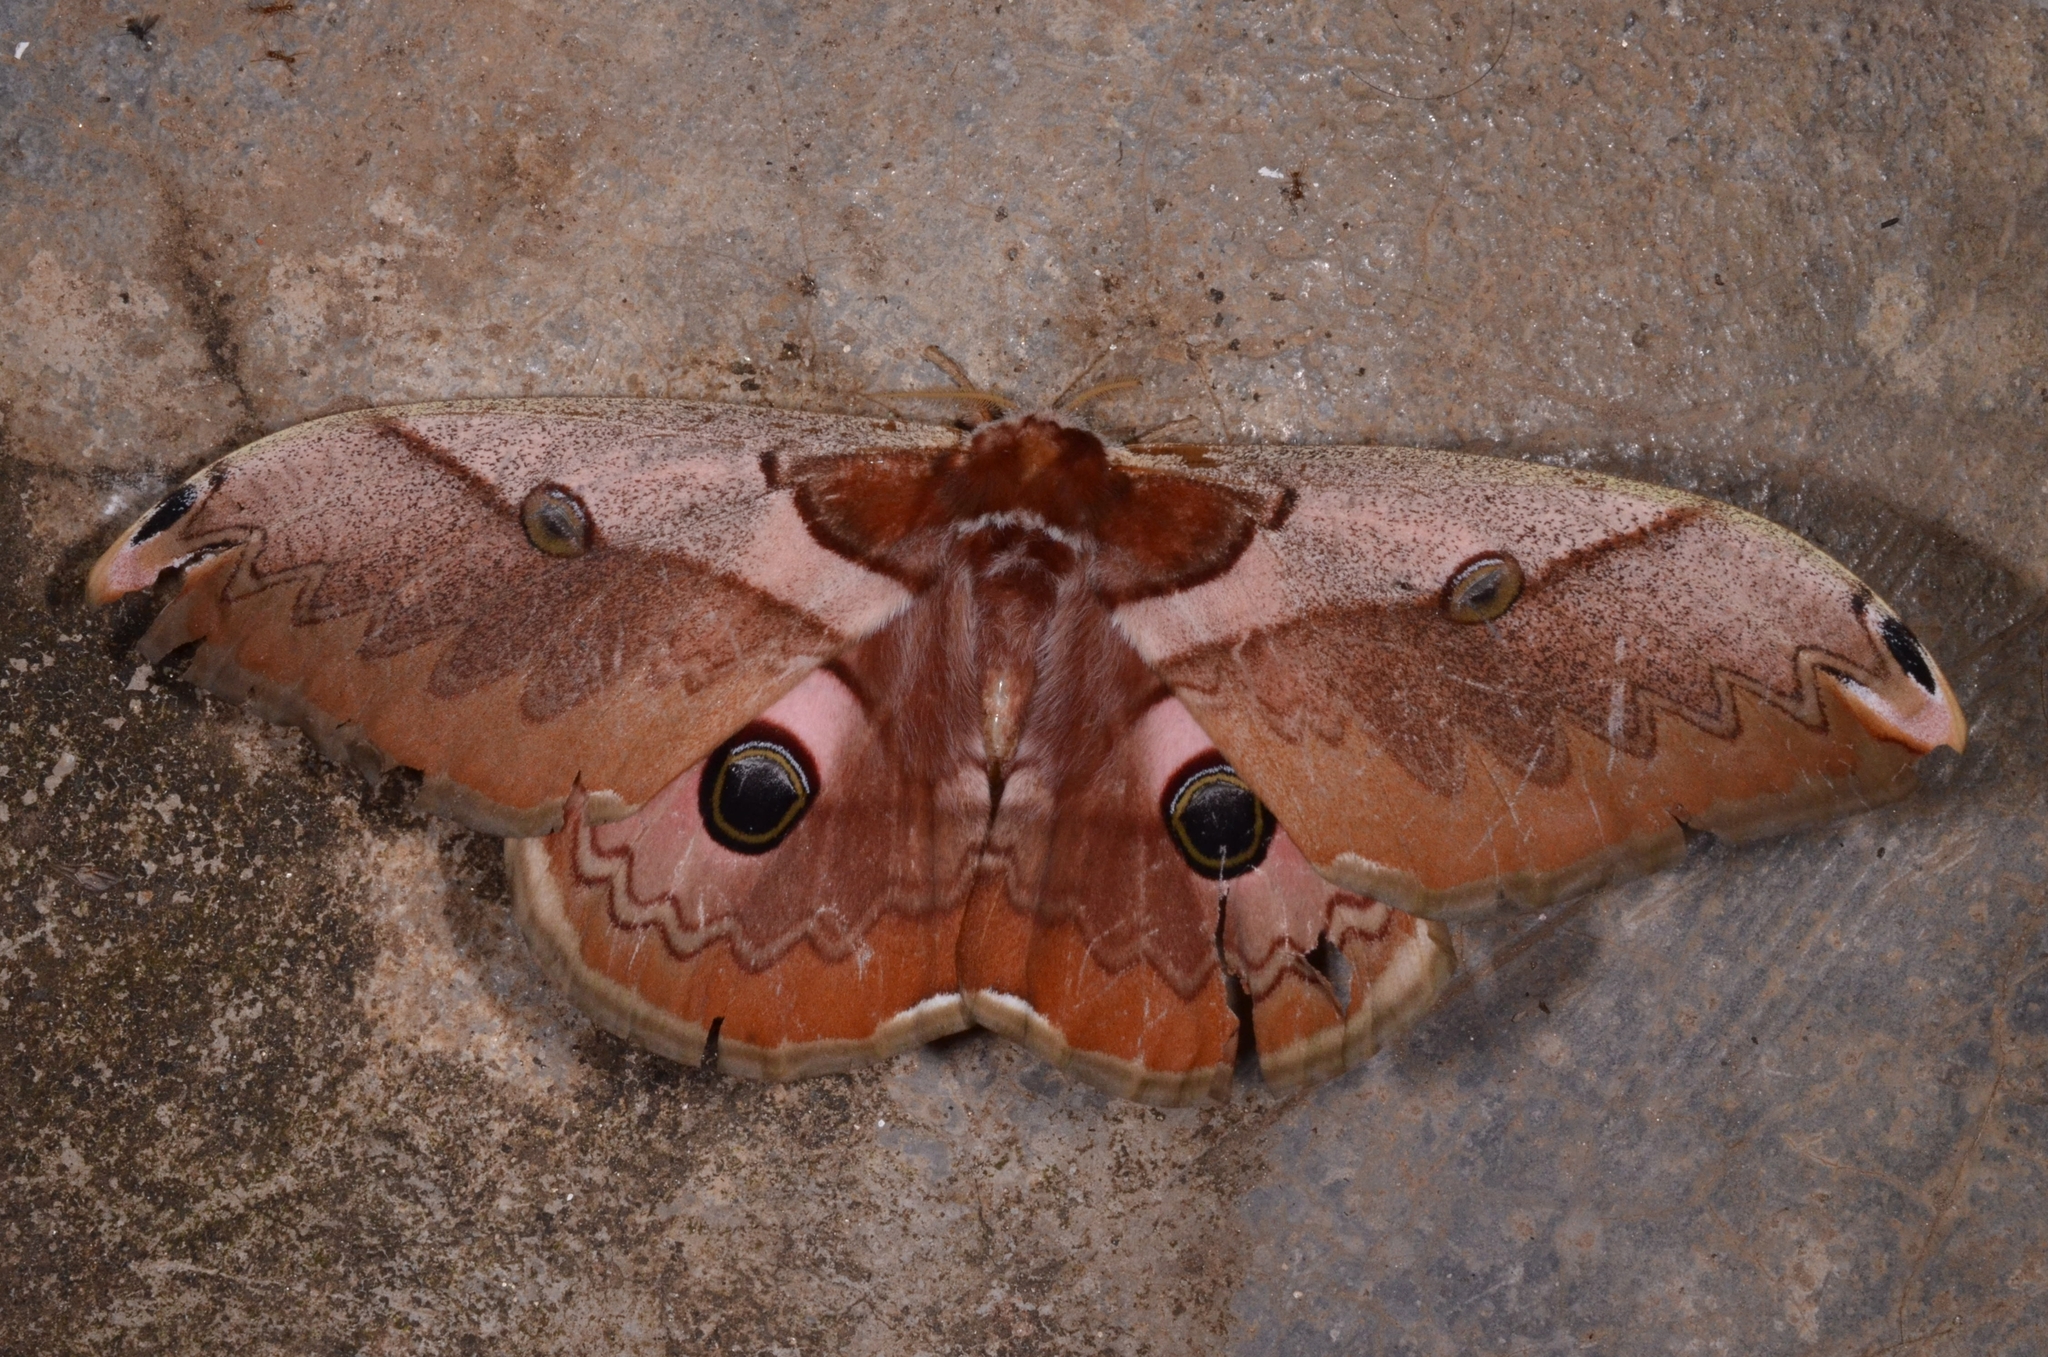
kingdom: Animalia
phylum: Arthropoda
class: Insecta
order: Lepidoptera
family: Saturniidae
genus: Saturnia
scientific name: Saturnia simla
